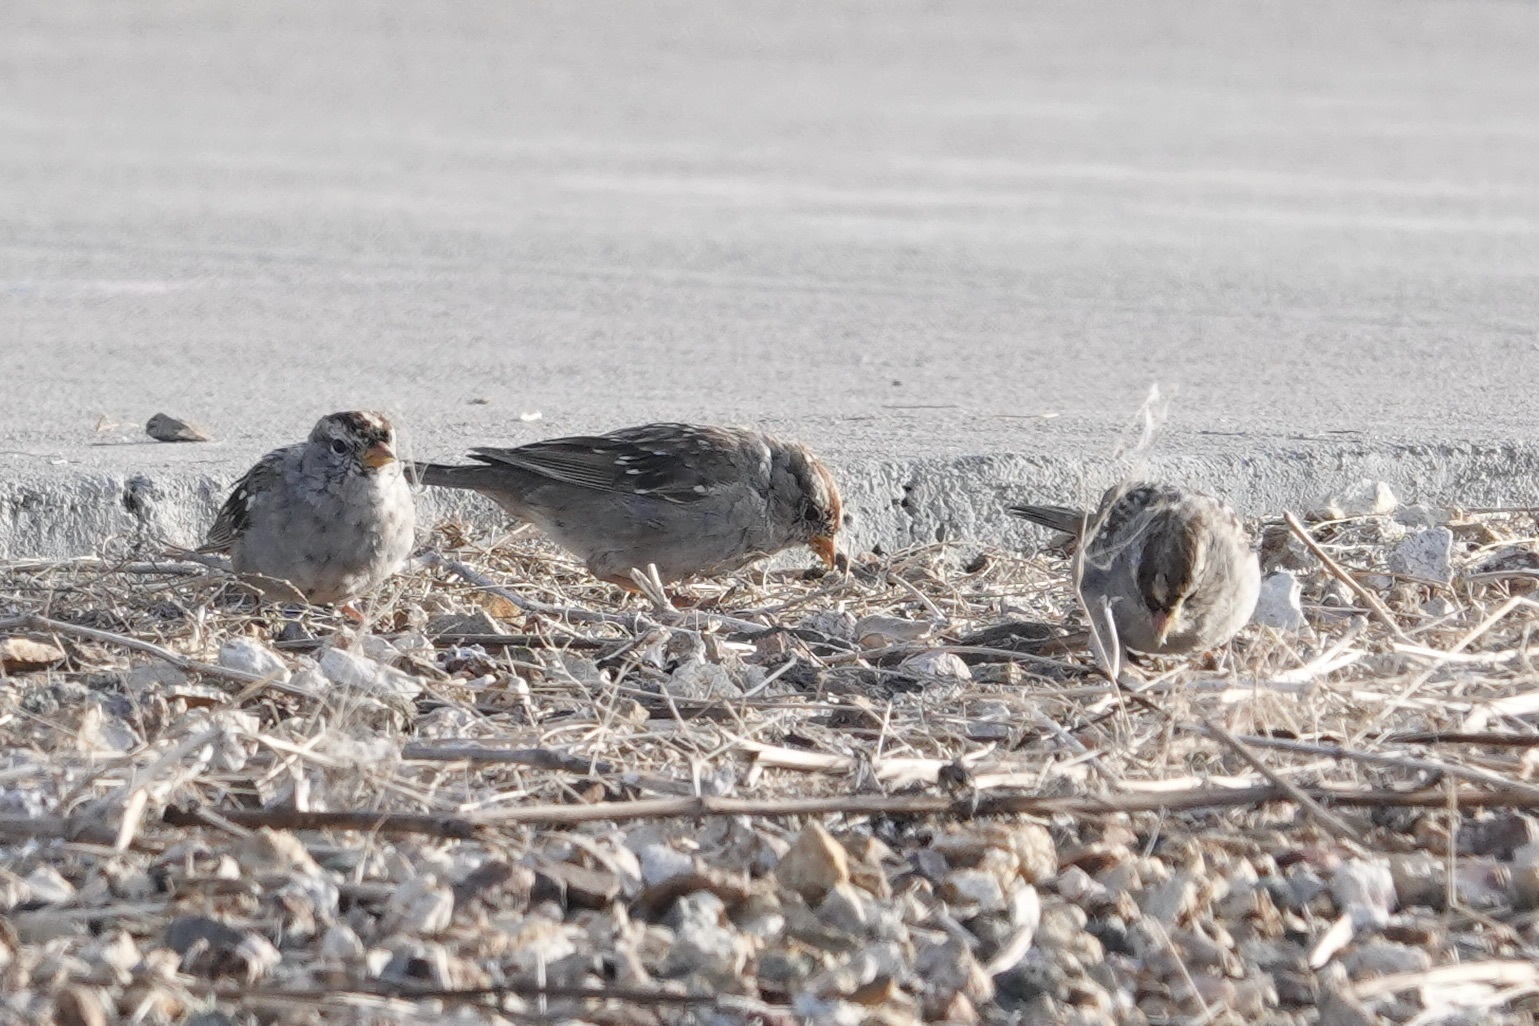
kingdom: Animalia
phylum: Chordata
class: Aves
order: Passeriformes
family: Passerellidae
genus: Zonotrichia
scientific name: Zonotrichia leucophrys
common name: White-crowned sparrow
